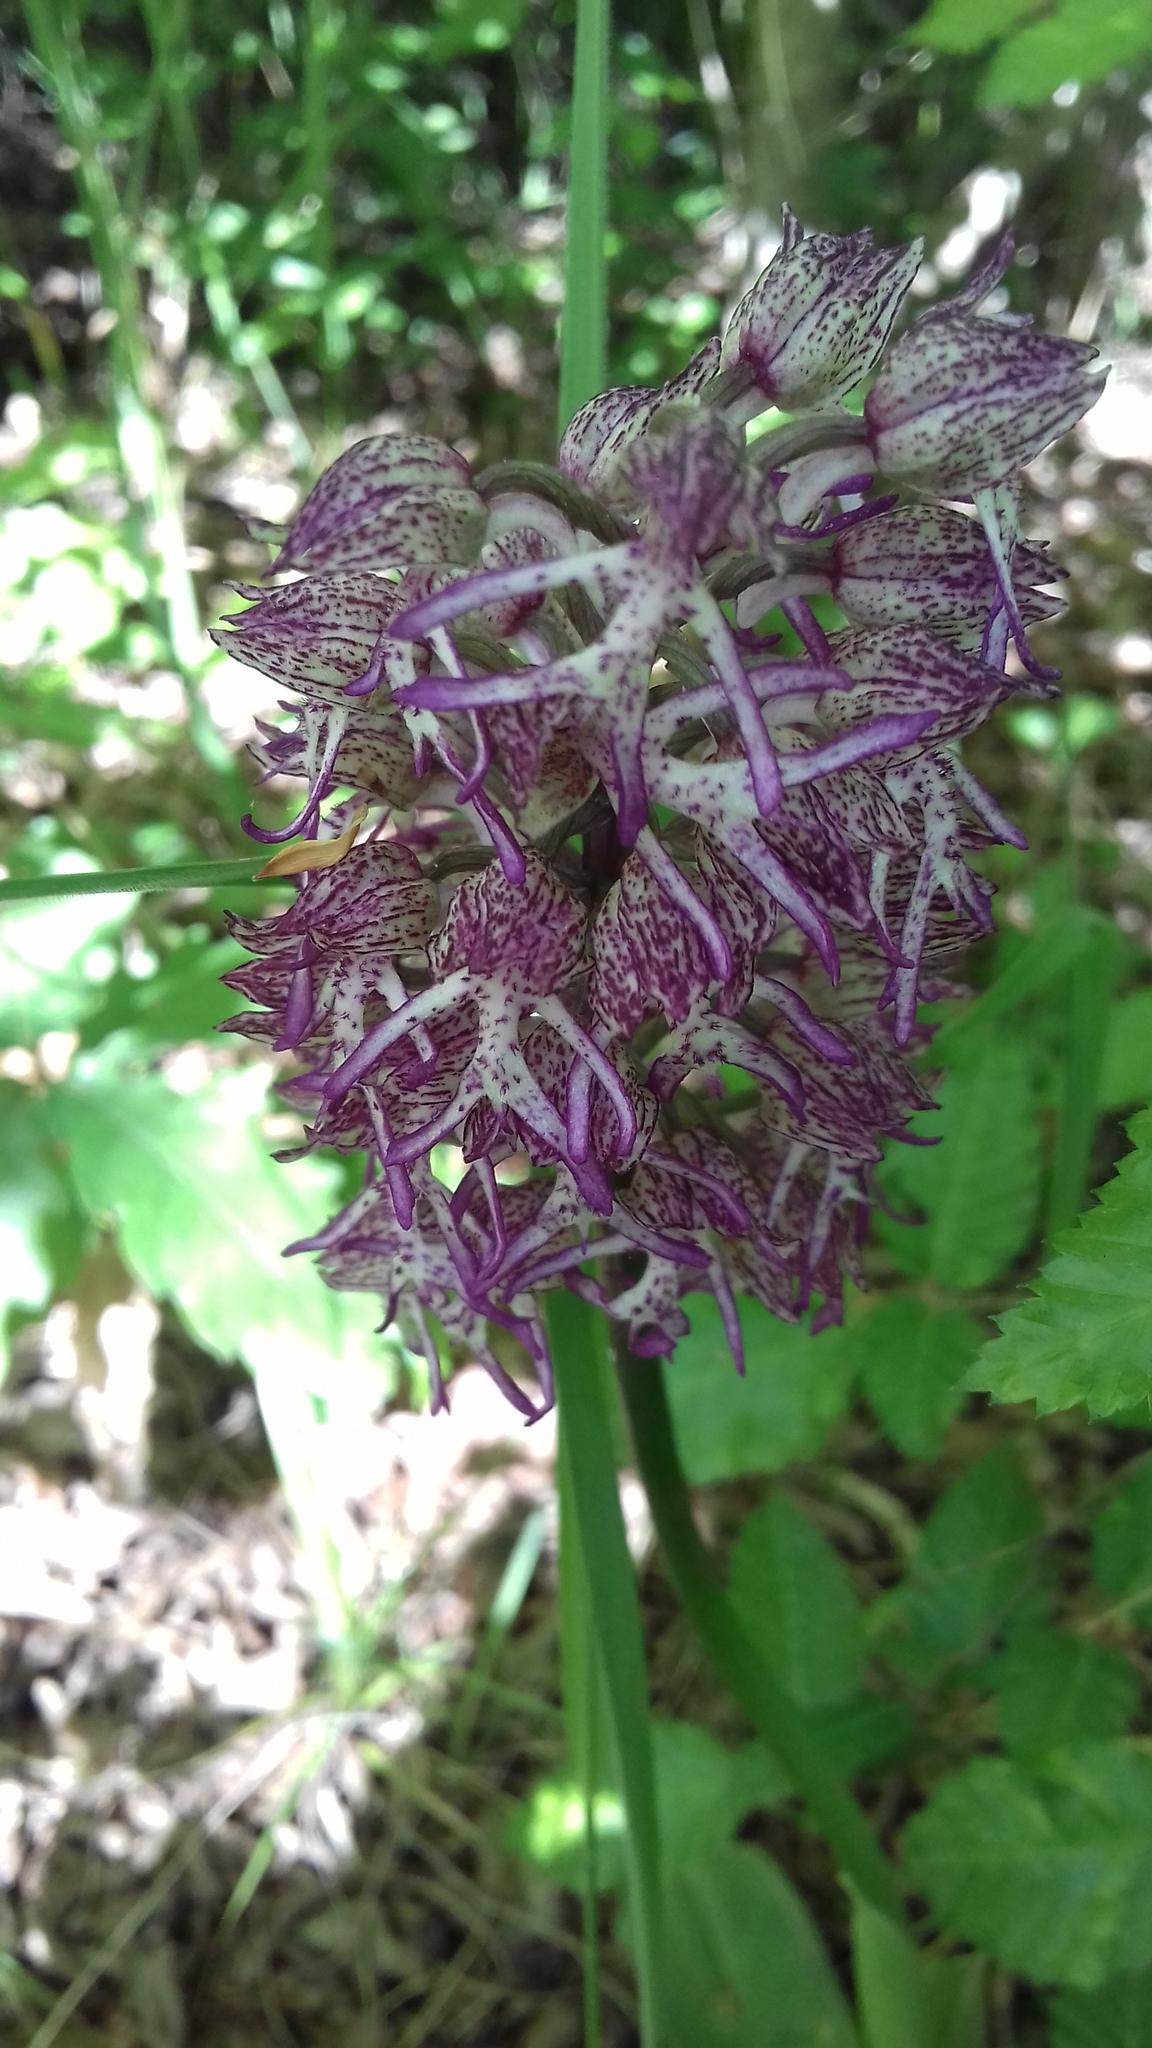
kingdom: Plantae
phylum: Tracheophyta
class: Liliopsida
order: Asparagales
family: Orchidaceae
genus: Orchis
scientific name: Orchis angusticruris
